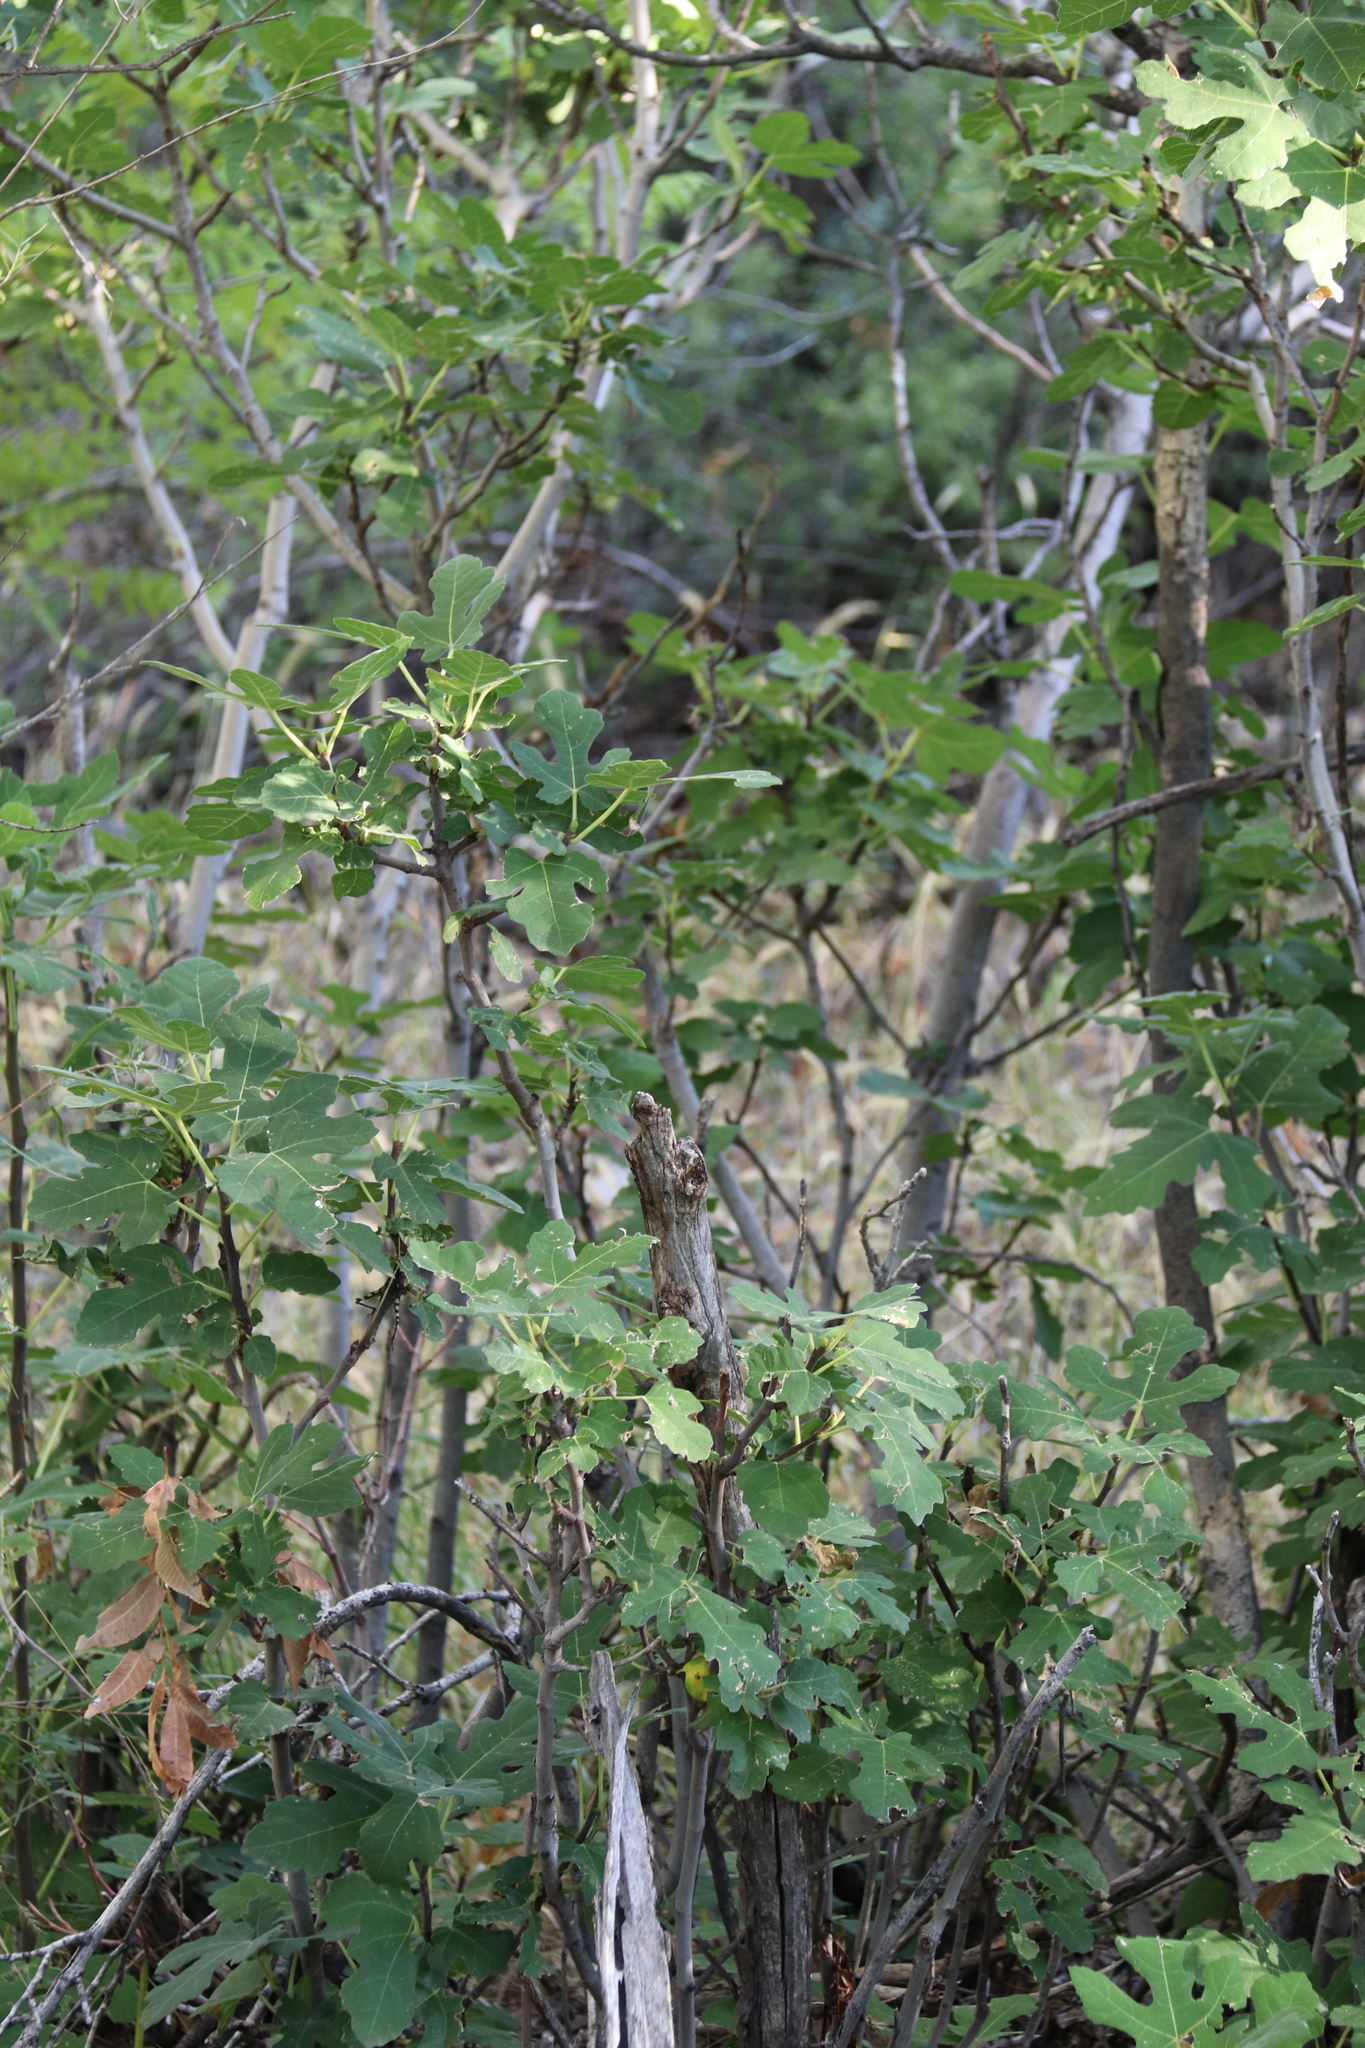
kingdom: Plantae
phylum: Tracheophyta
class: Magnoliopsida
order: Rosales
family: Moraceae
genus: Ficus
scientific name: Ficus carica
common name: Fig
